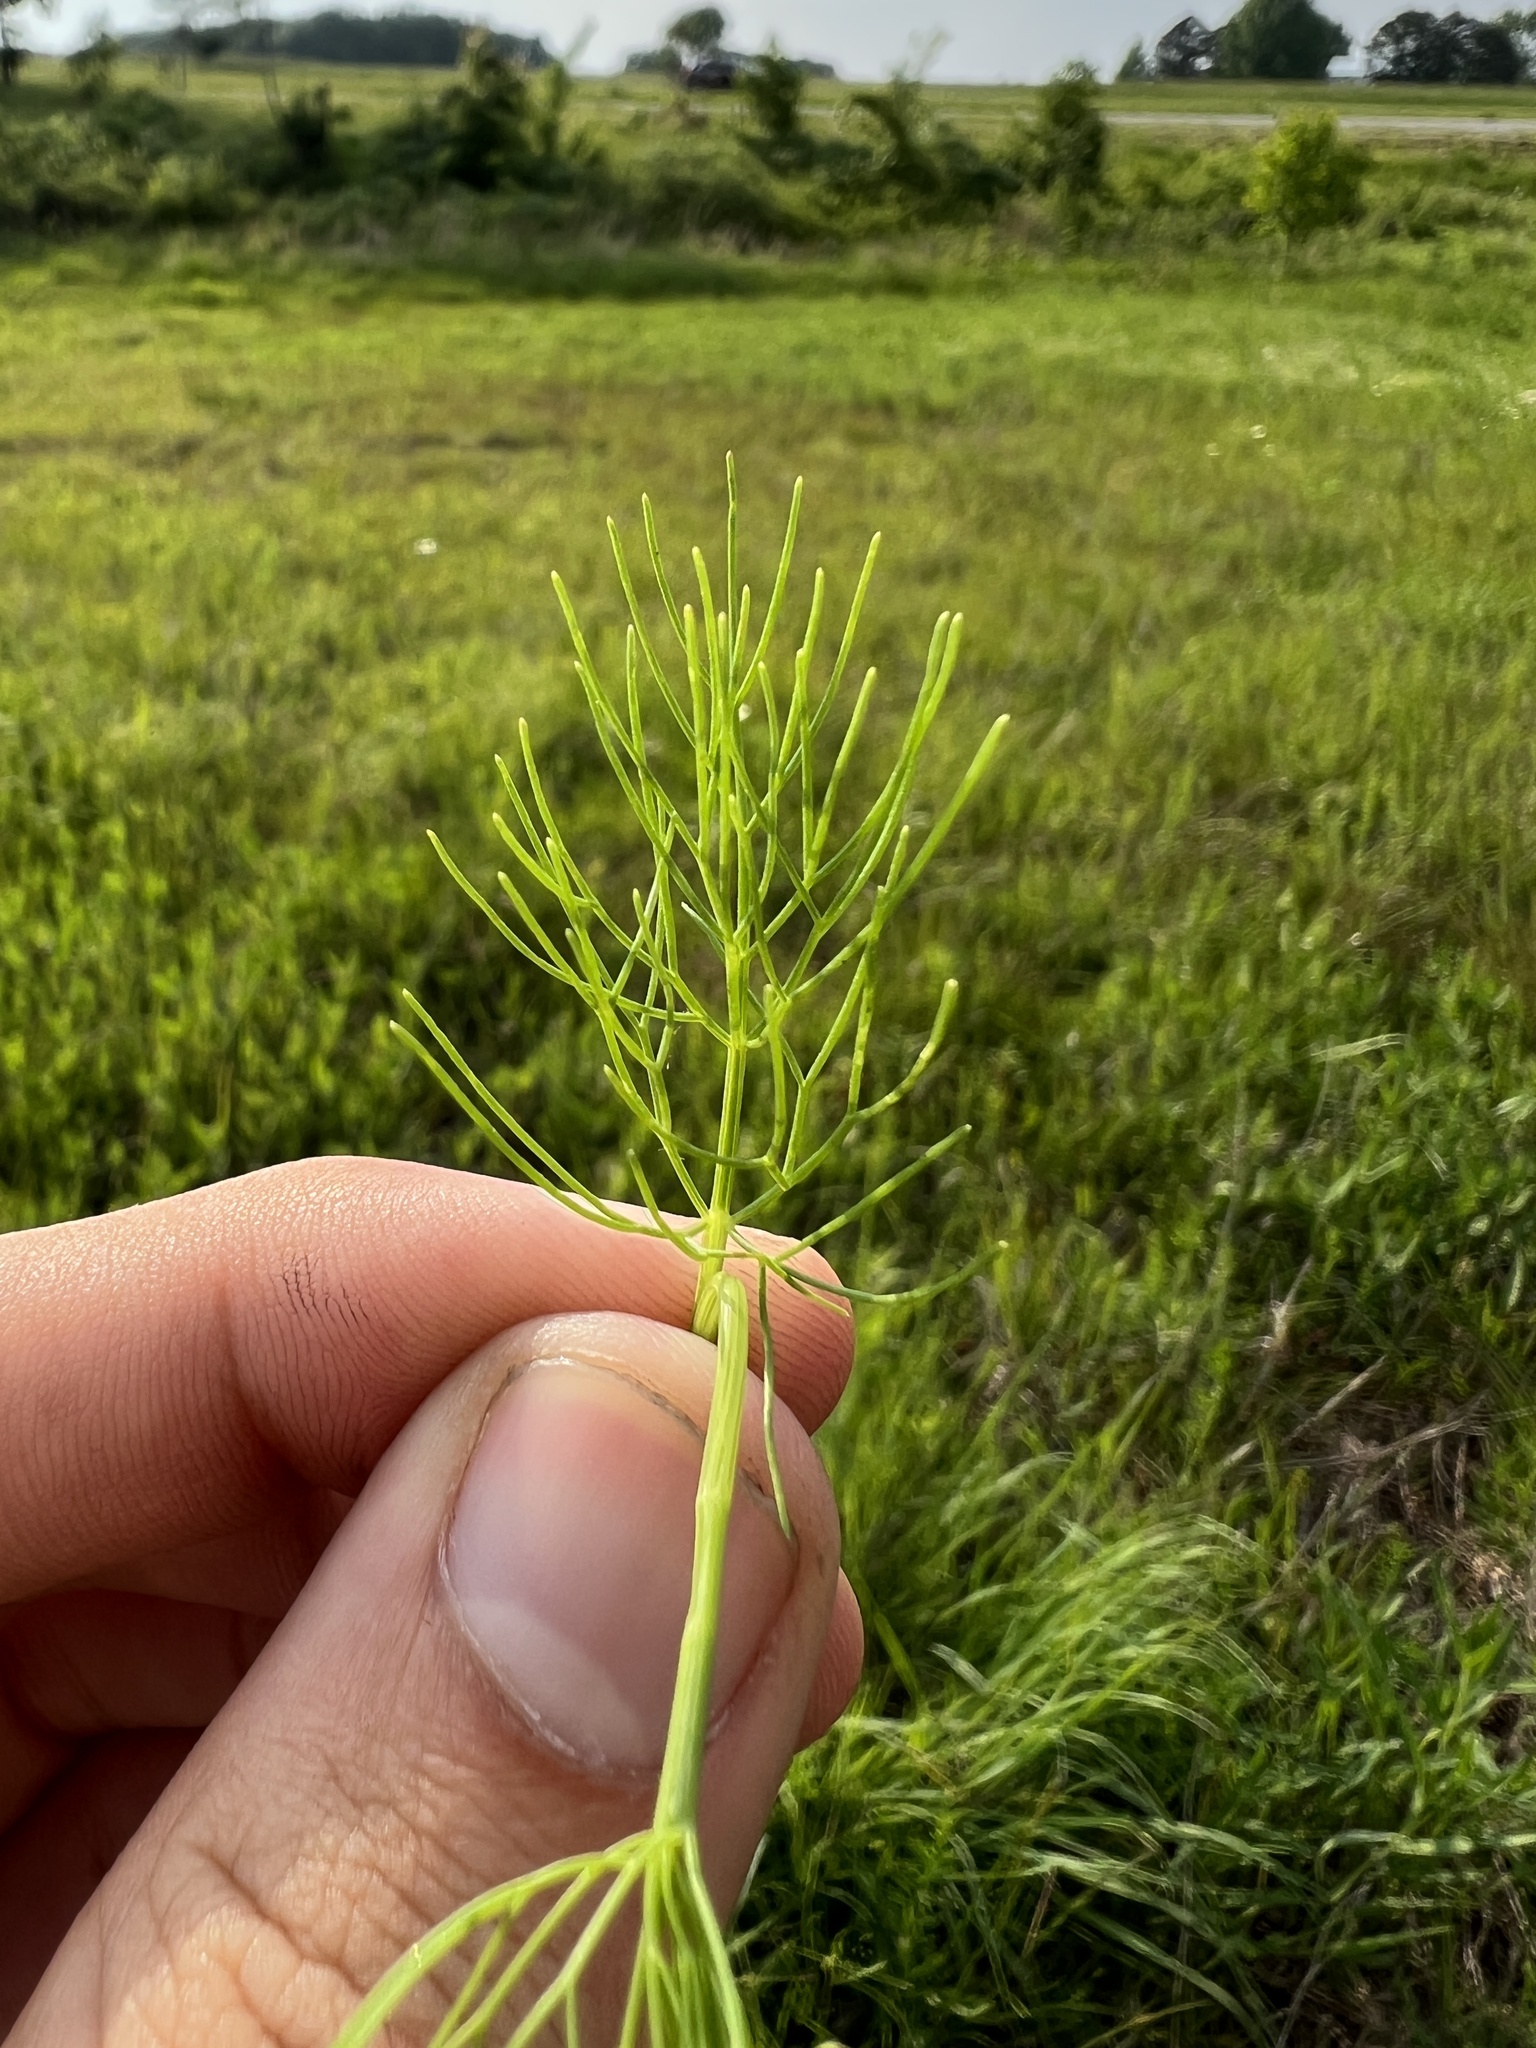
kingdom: Plantae
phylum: Tracheophyta
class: Magnoliopsida
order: Apiales
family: Apiaceae
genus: Ptilimnium
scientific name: Ptilimnium nuttallii
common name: Ozark bishop's-weed
